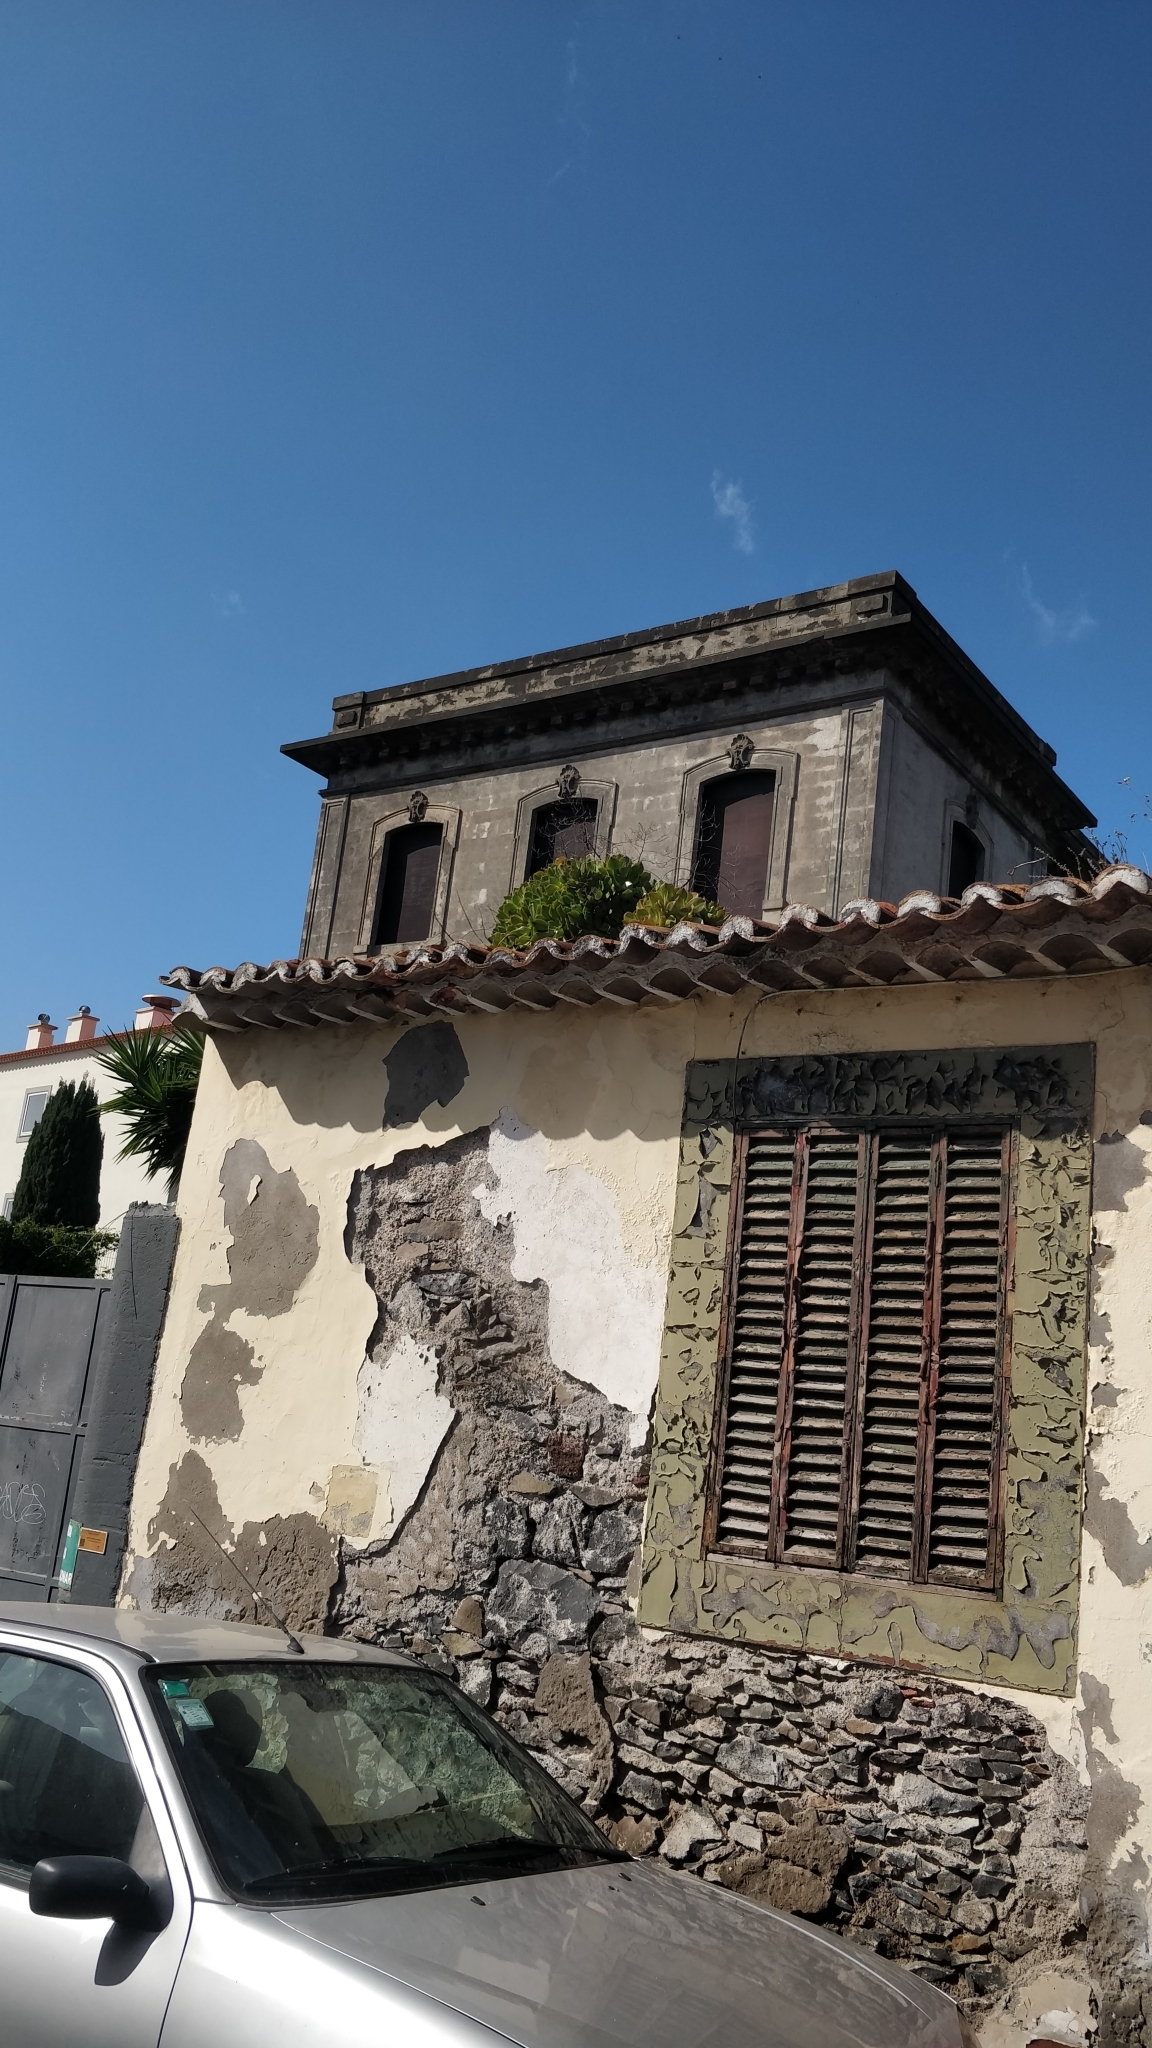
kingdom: Plantae
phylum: Tracheophyta
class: Magnoliopsida
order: Saxifragales
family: Crassulaceae
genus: Aeonium
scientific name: Aeonium glutinosum
